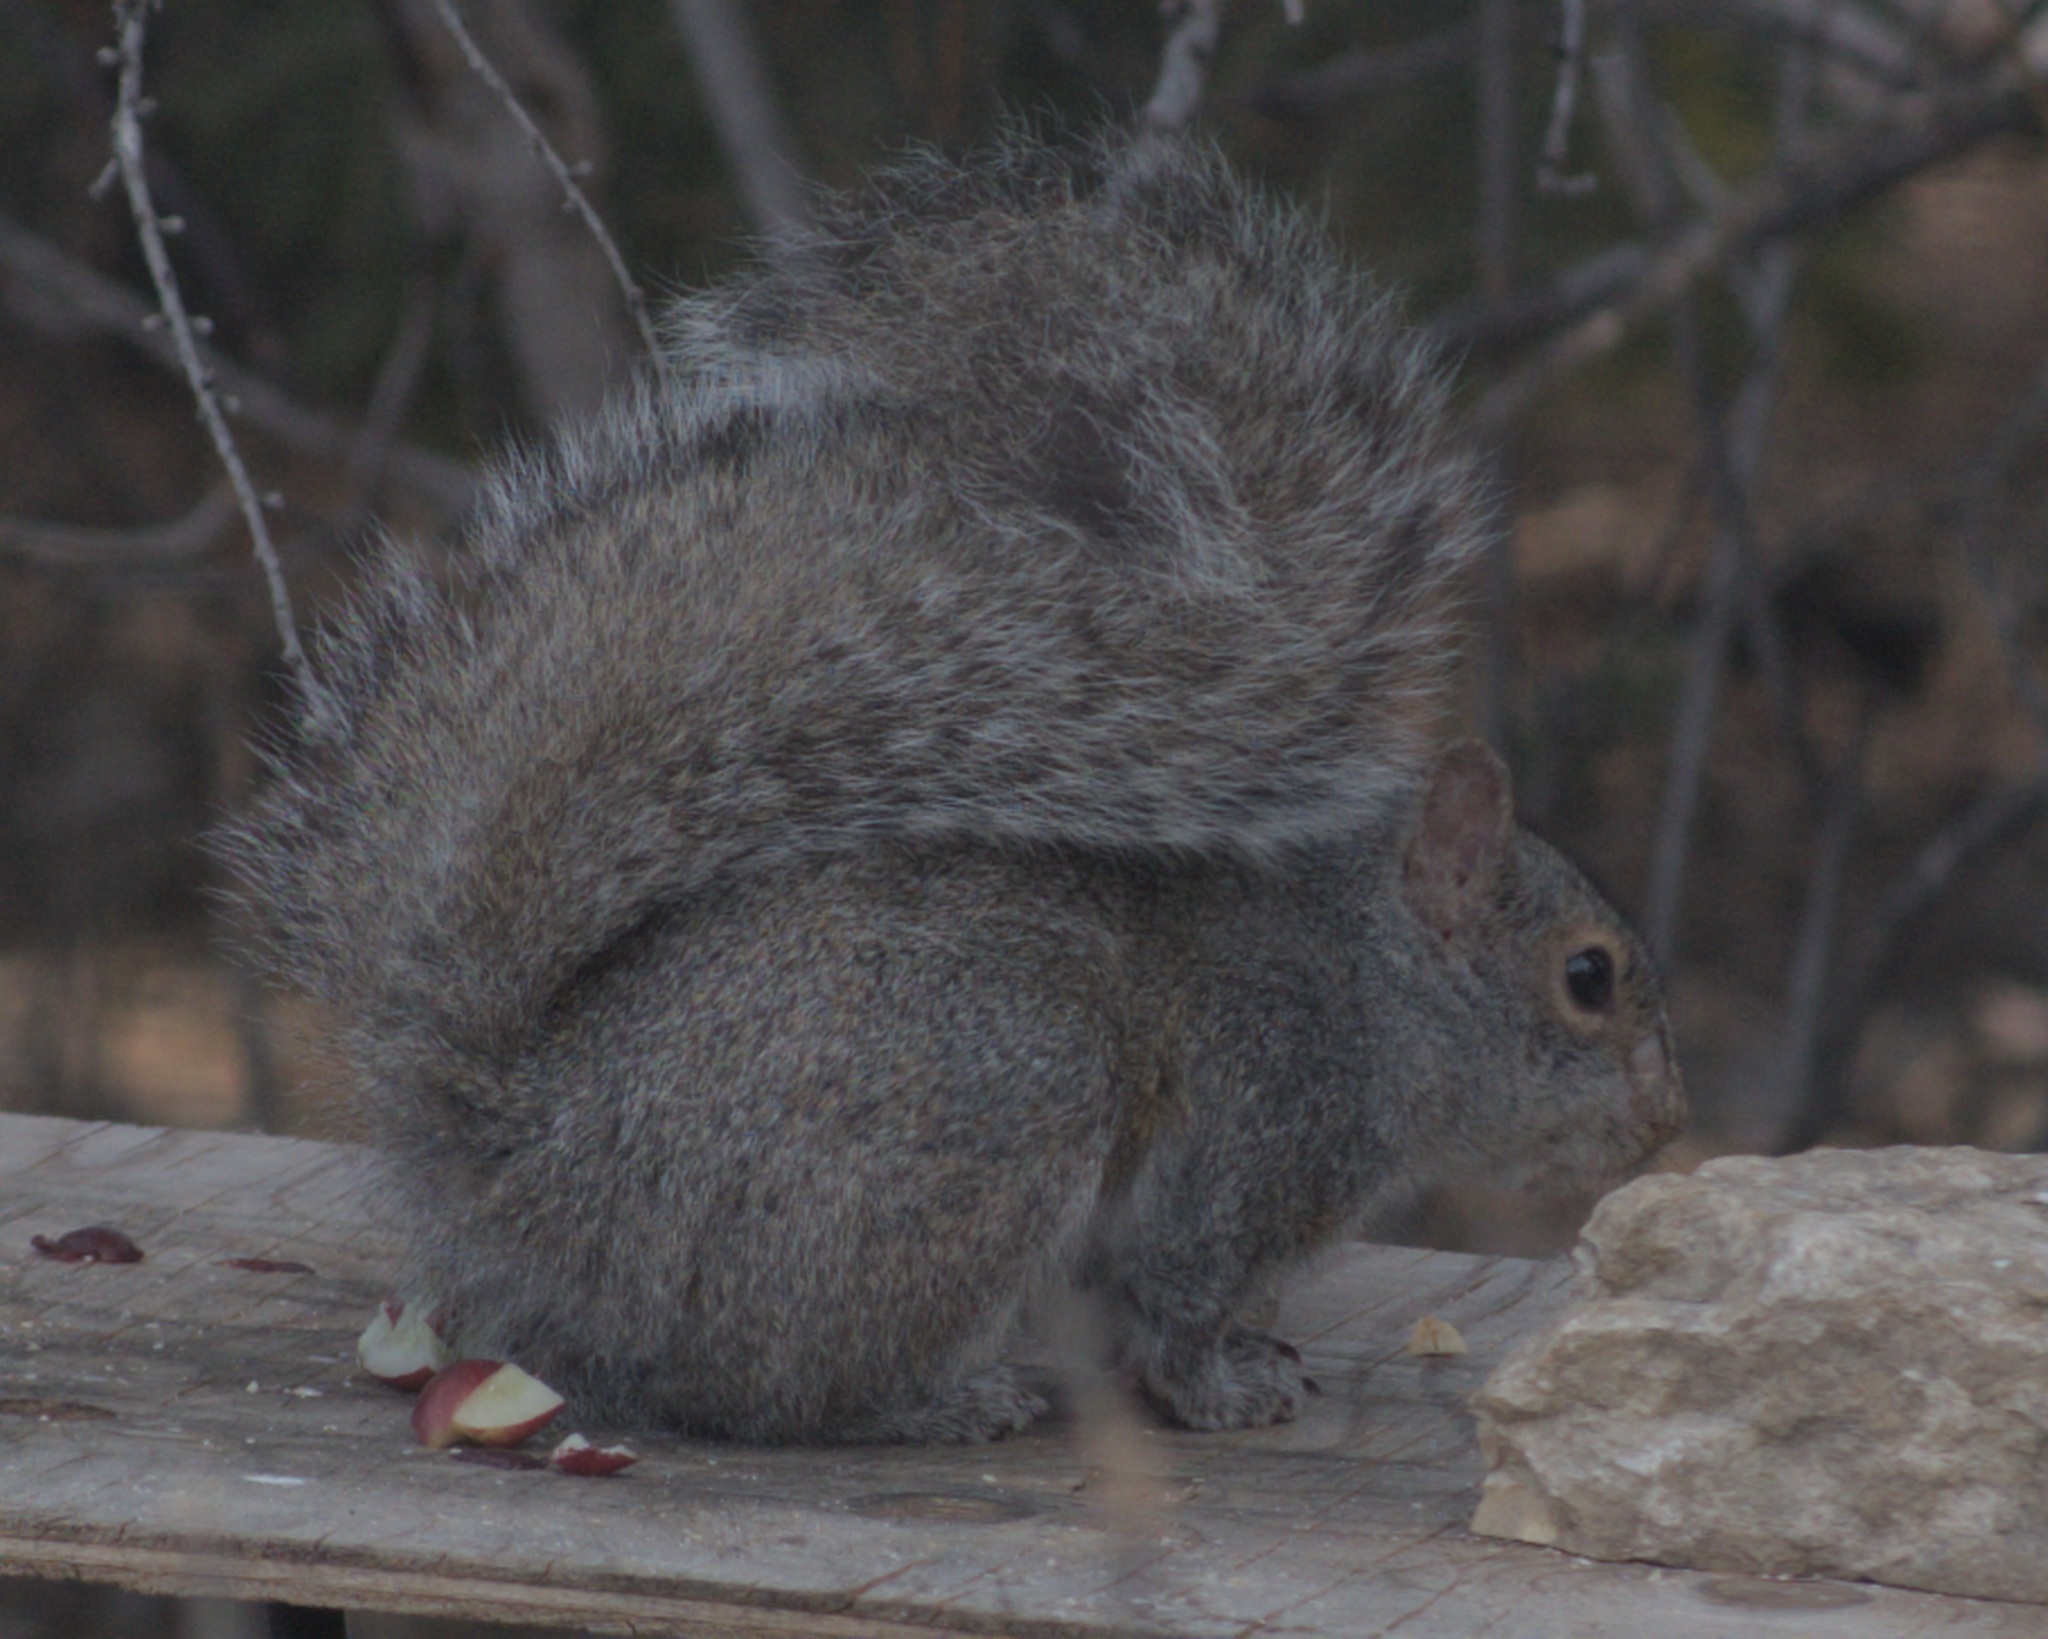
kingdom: Animalia
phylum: Chordata
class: Mammalia
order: Rodentia
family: Sciuridae
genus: Sciurus
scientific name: Sciurus carolinensis
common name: Eastern gray squirrel
